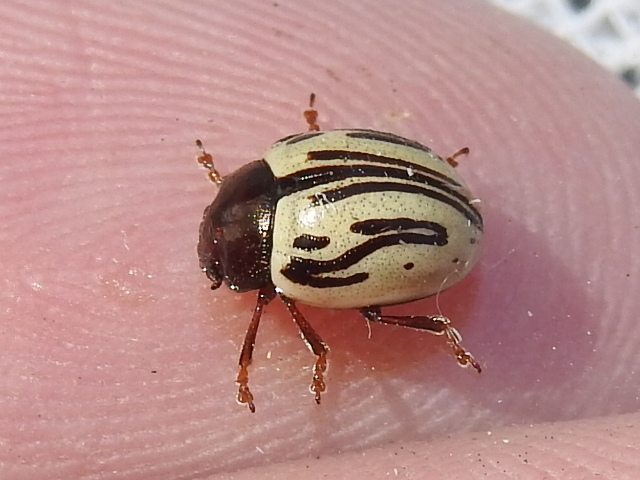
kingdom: Animalia
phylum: Arthropoda
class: Insecta
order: Coleoptera
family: Chrysomelidae
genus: Calligrapha
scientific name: Calligrapha
